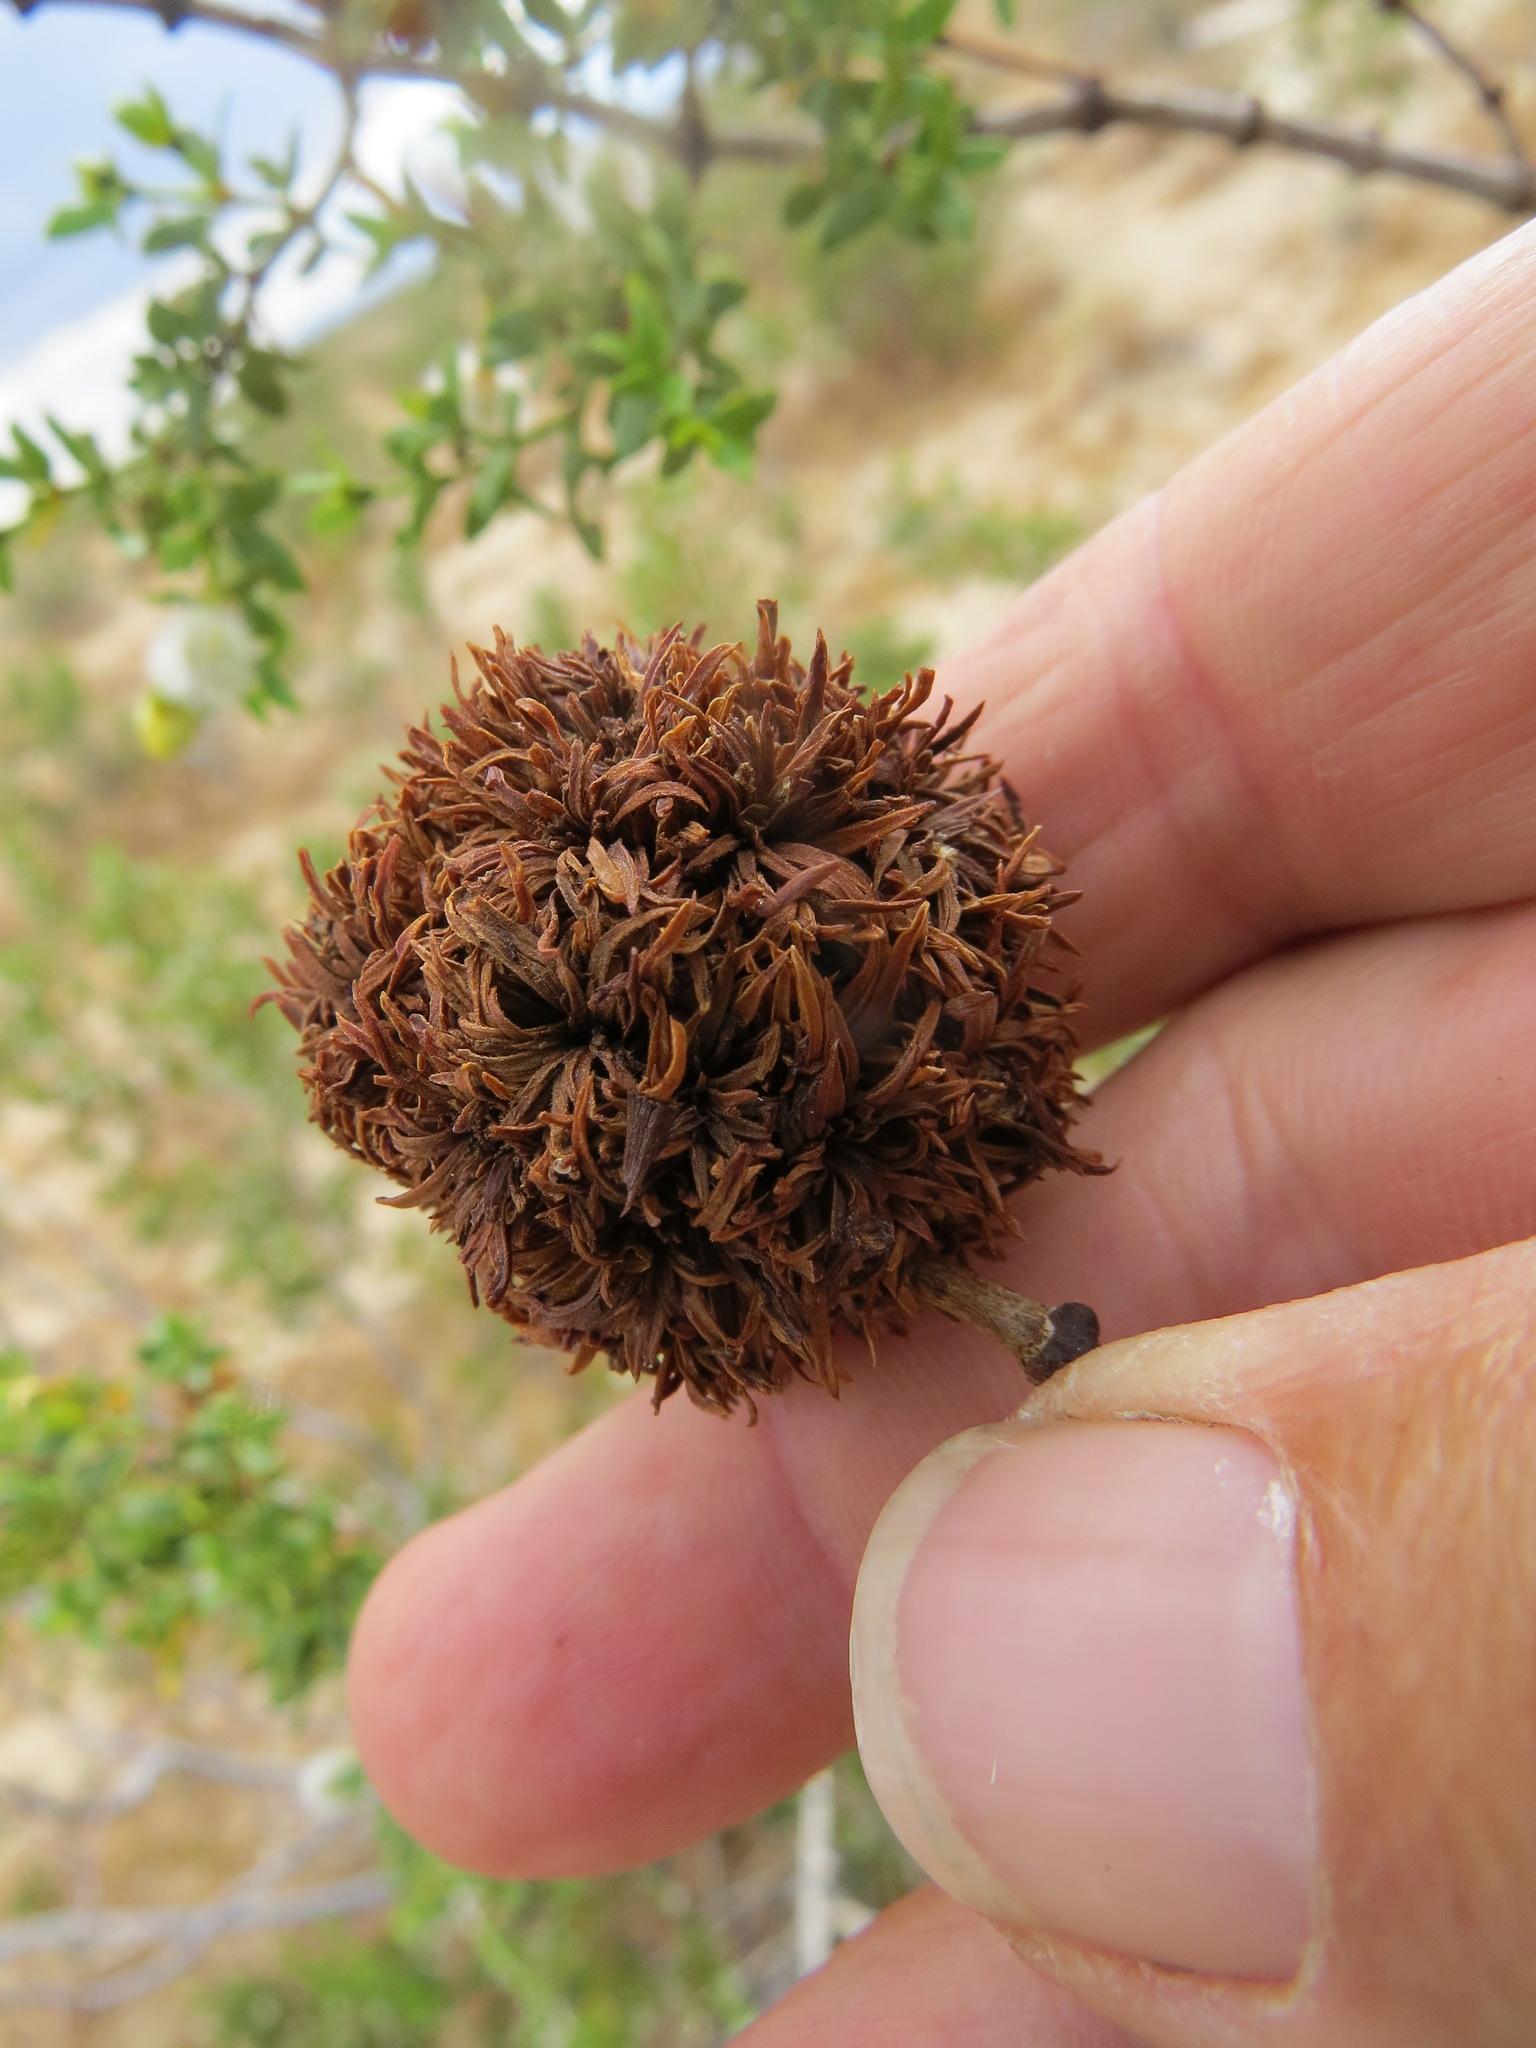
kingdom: Animalia
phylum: Arthropoda
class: Insecta
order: Diptera
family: Cecidomyiidae
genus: Asphondylia
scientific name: Asphondylia auripila
